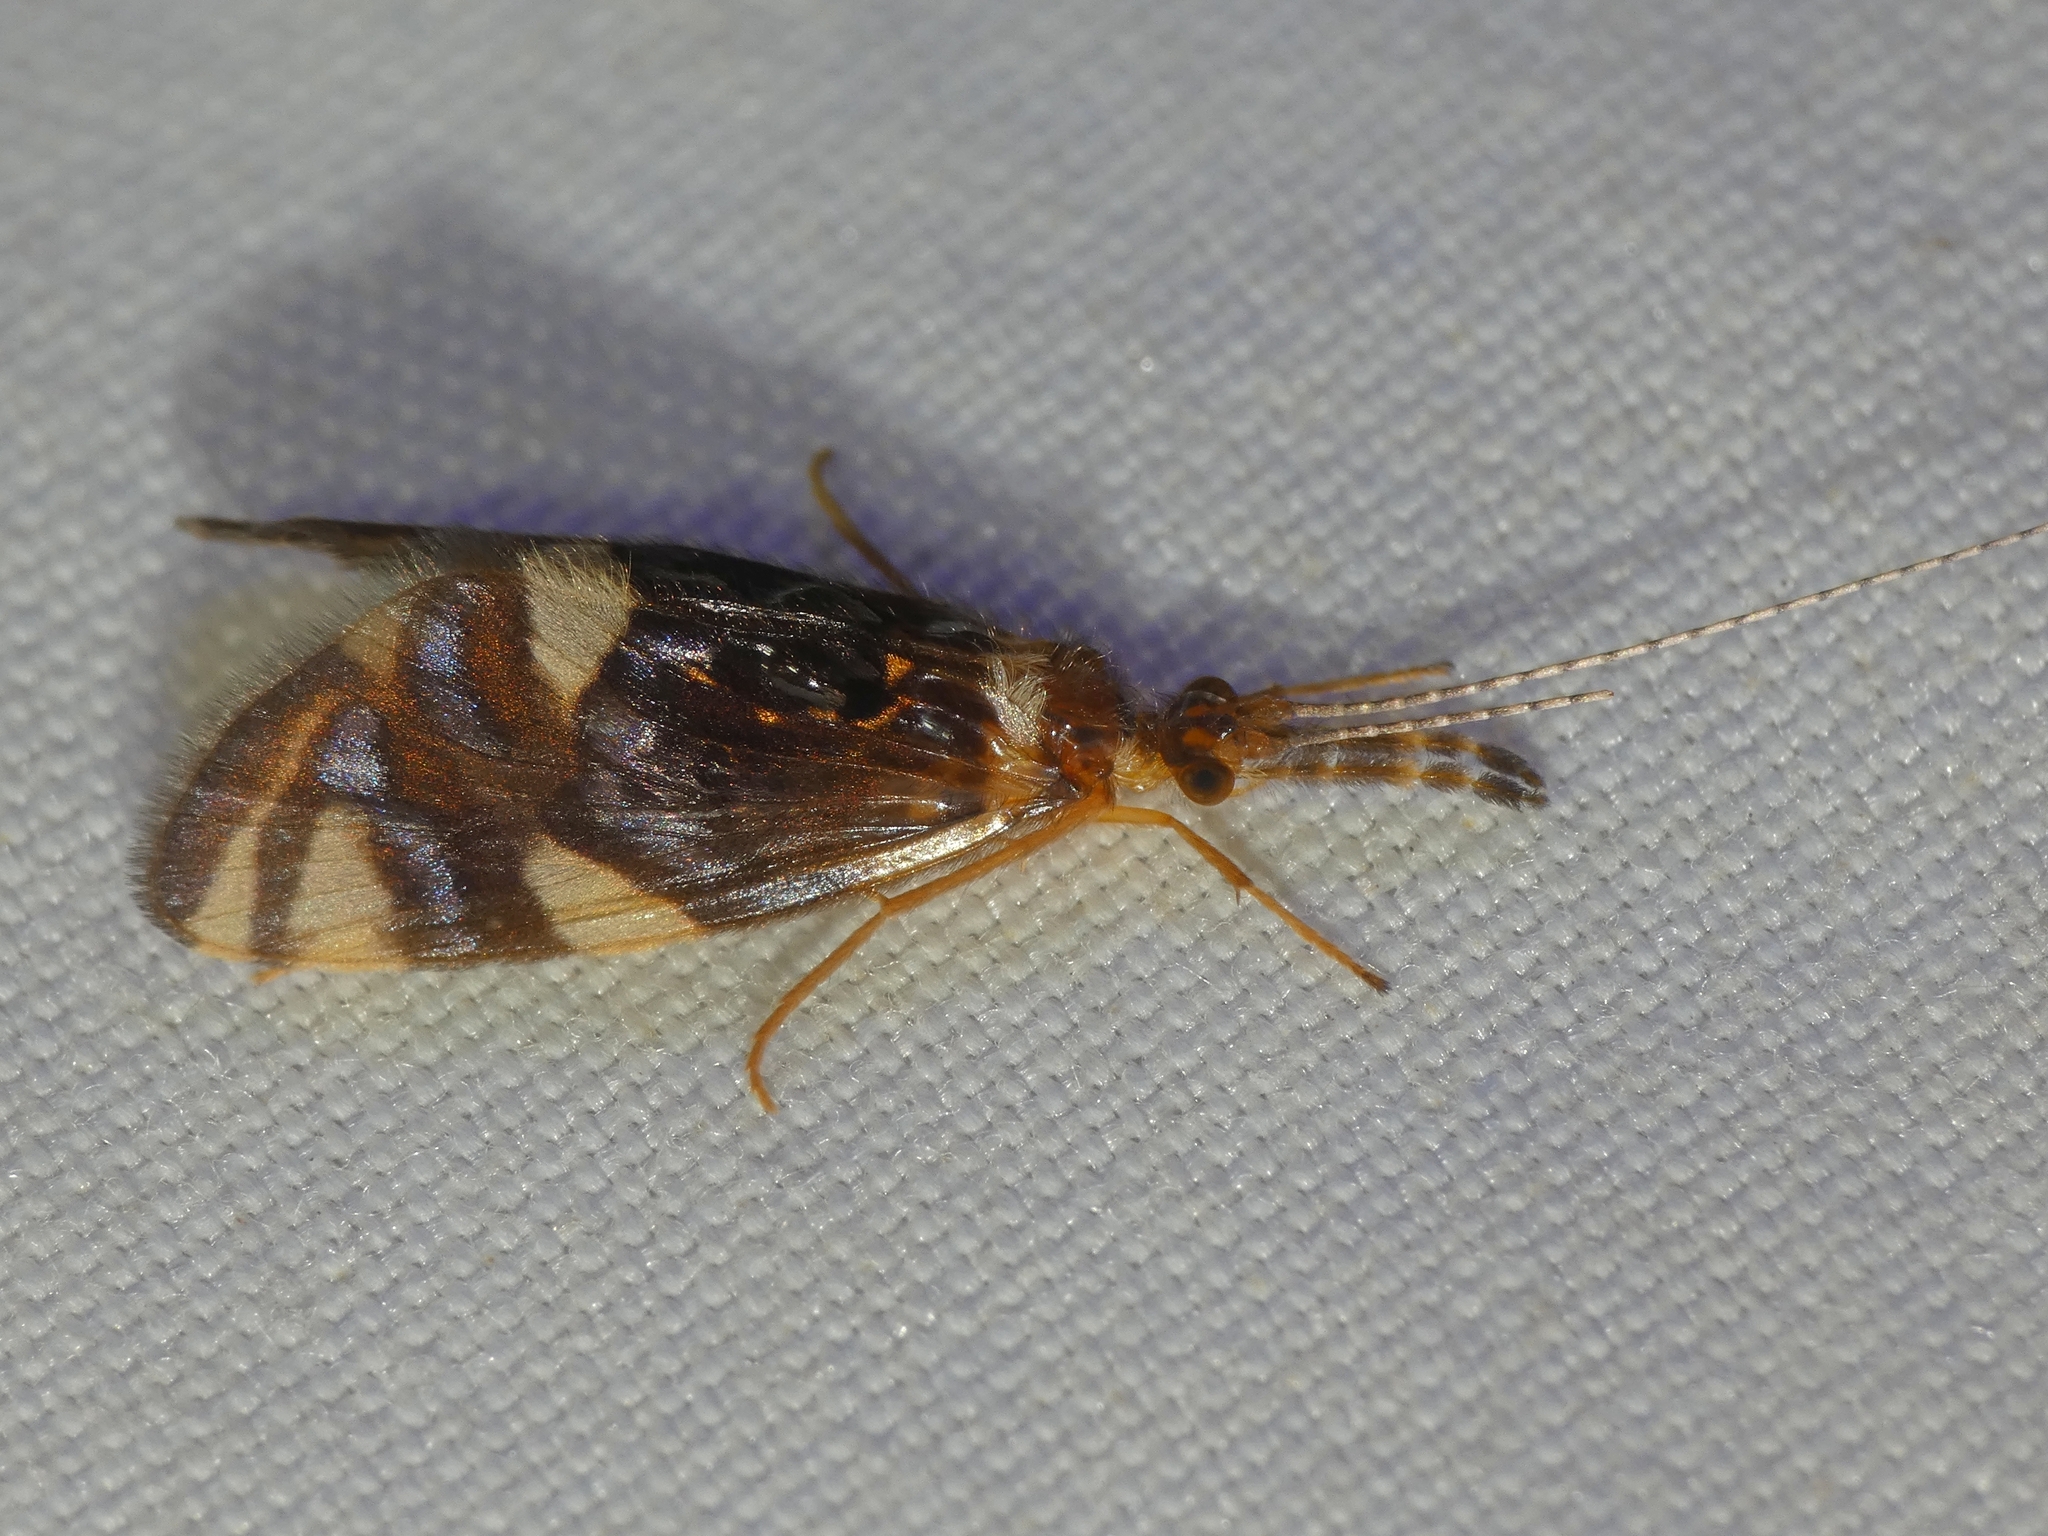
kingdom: Animalia
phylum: Arthropoda
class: Insecta
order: Trichoptera
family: Calamoceratidae
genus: Anisocentropus
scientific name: Anisocentropus banghaasi
